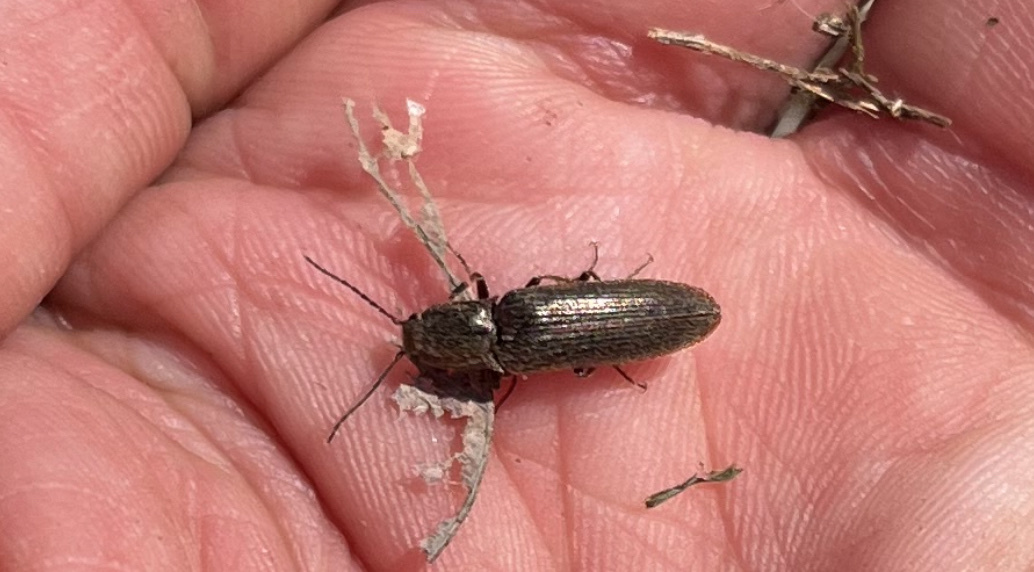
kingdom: Animalia
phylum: Arthropoda
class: Insecta
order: Coleoptera
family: Elateridae
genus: Sylvanelater
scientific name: Sylvanelater cylindriformis
